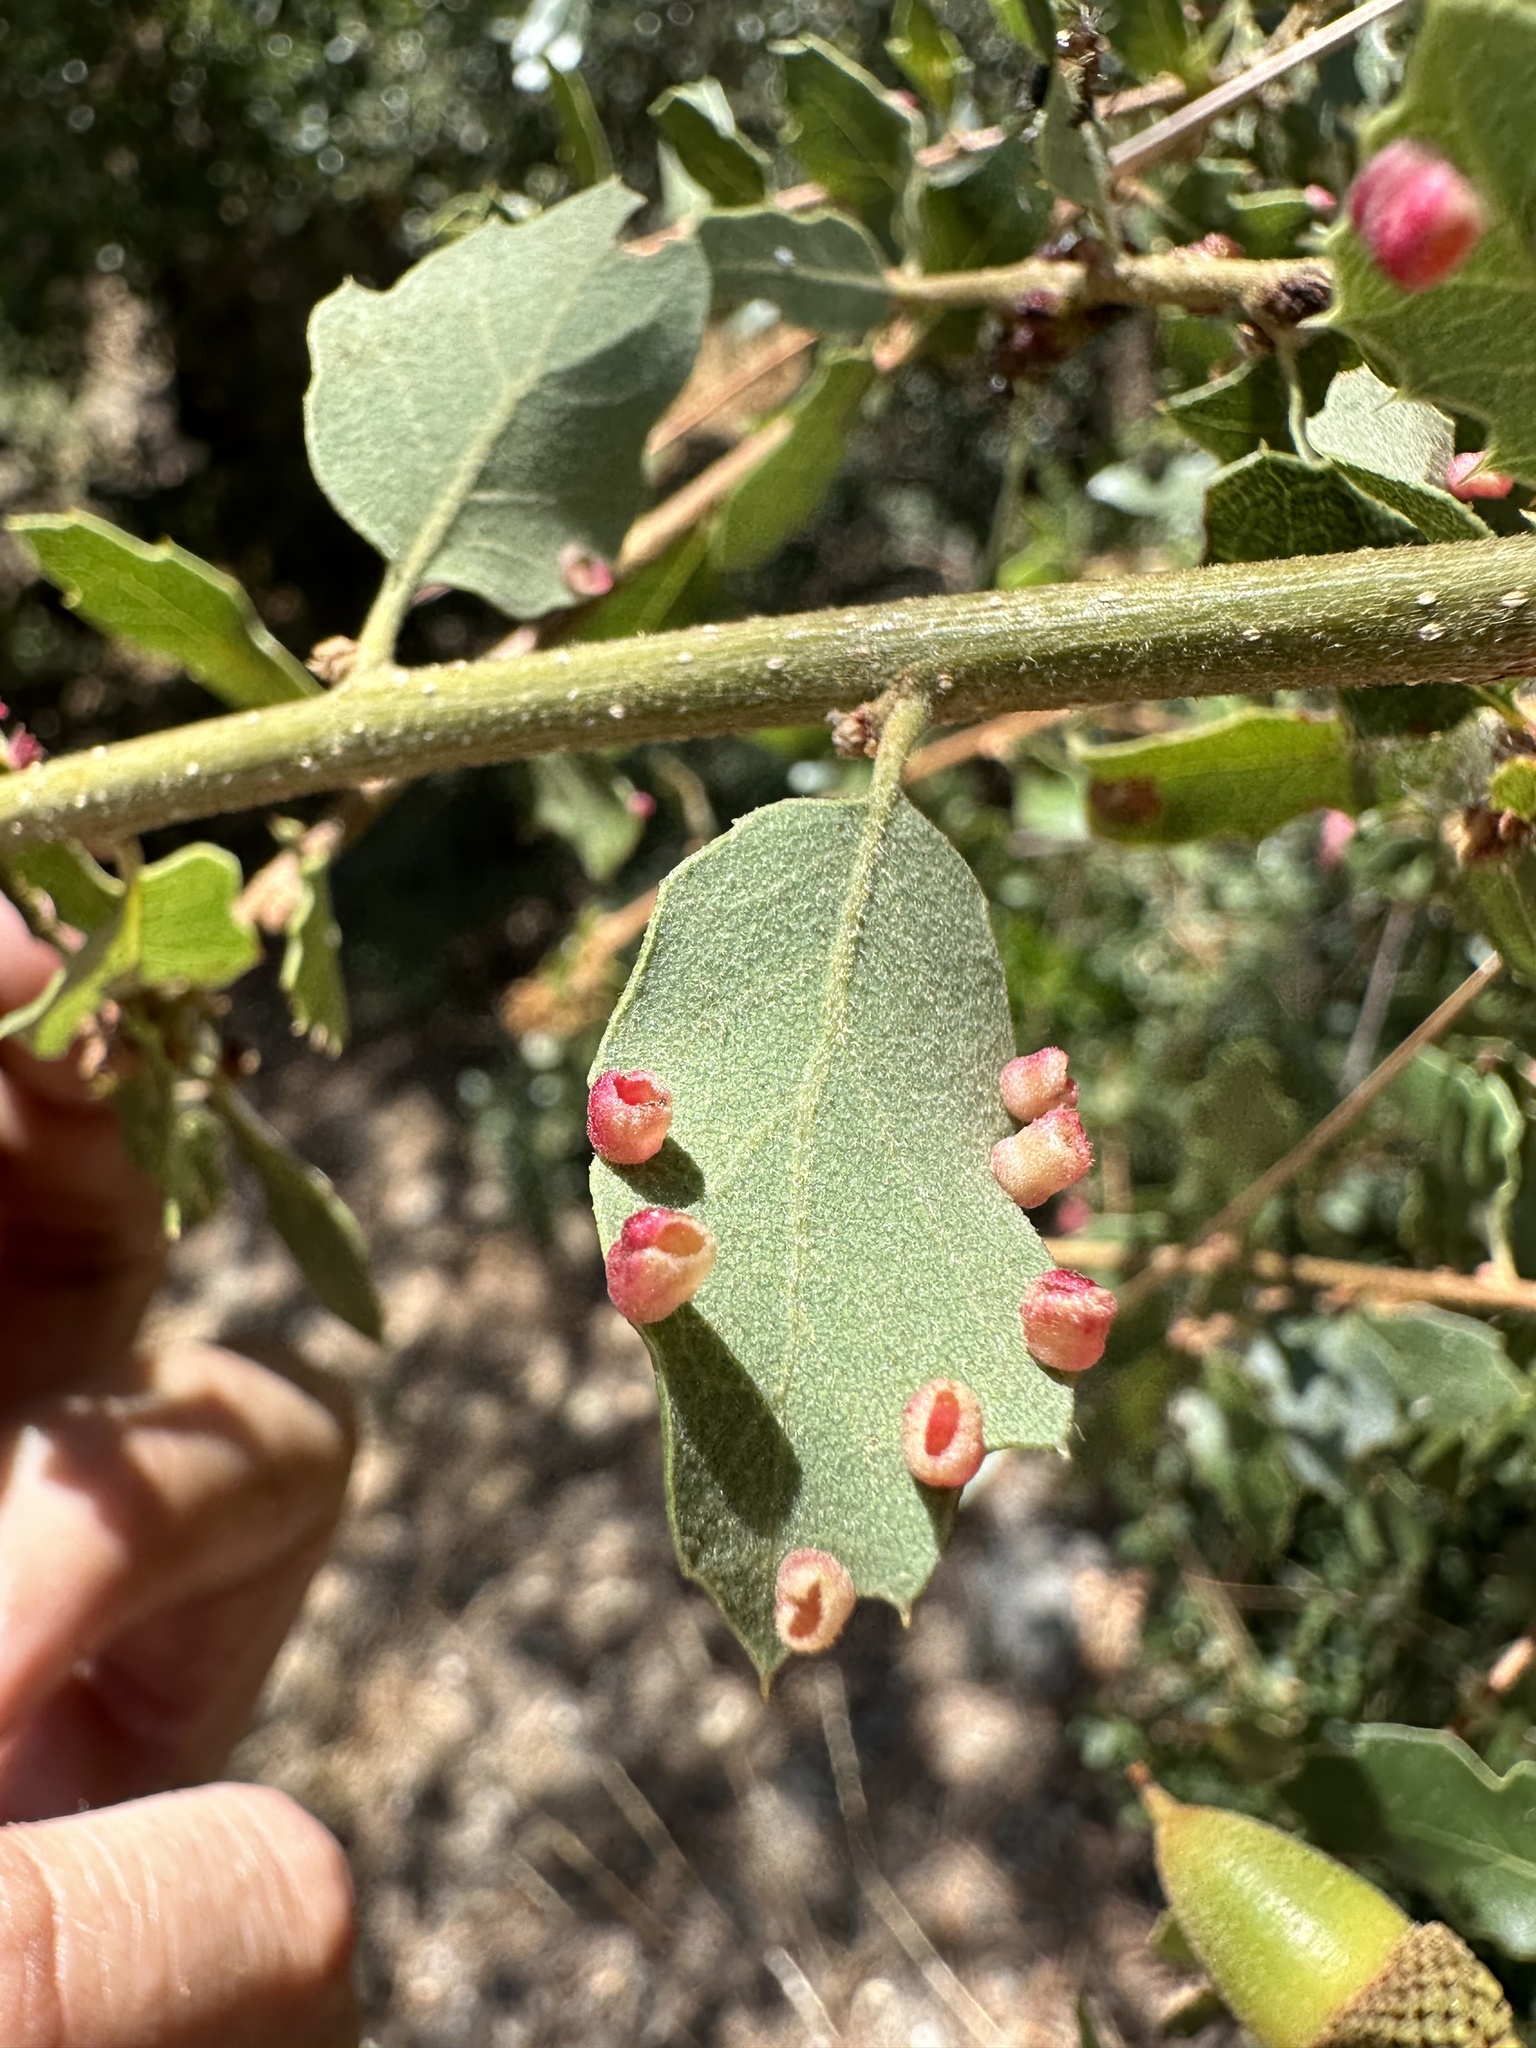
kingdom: Animalia
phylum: Arthropoda
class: Insecta
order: Hymenoptera
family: Cynipidae
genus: Phylloteras
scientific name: Phylloteras
